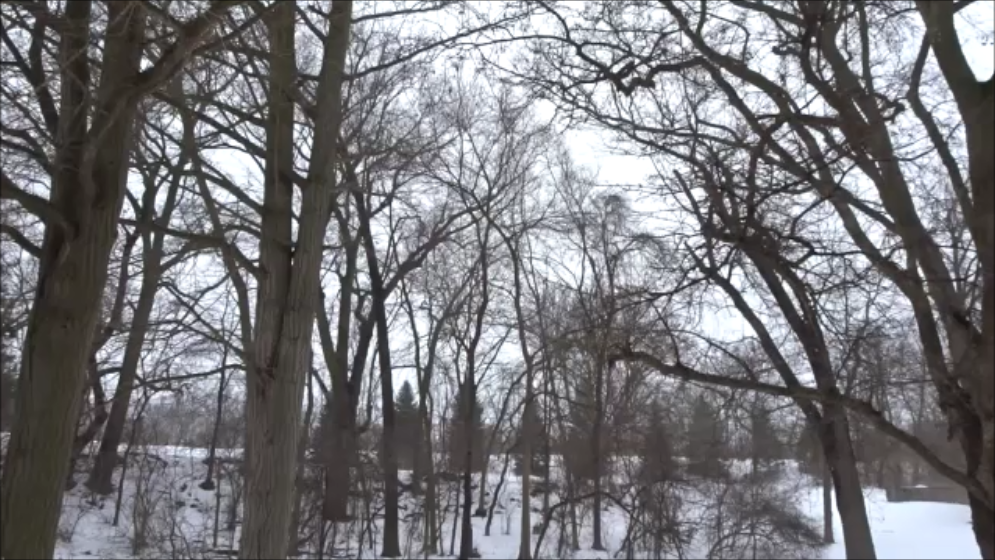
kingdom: Animalia
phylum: Chordata
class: Aves
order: Passeriformes
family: Paridae
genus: Baeolophus
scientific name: Baeolophus bicolor
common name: Tufted titmouse
